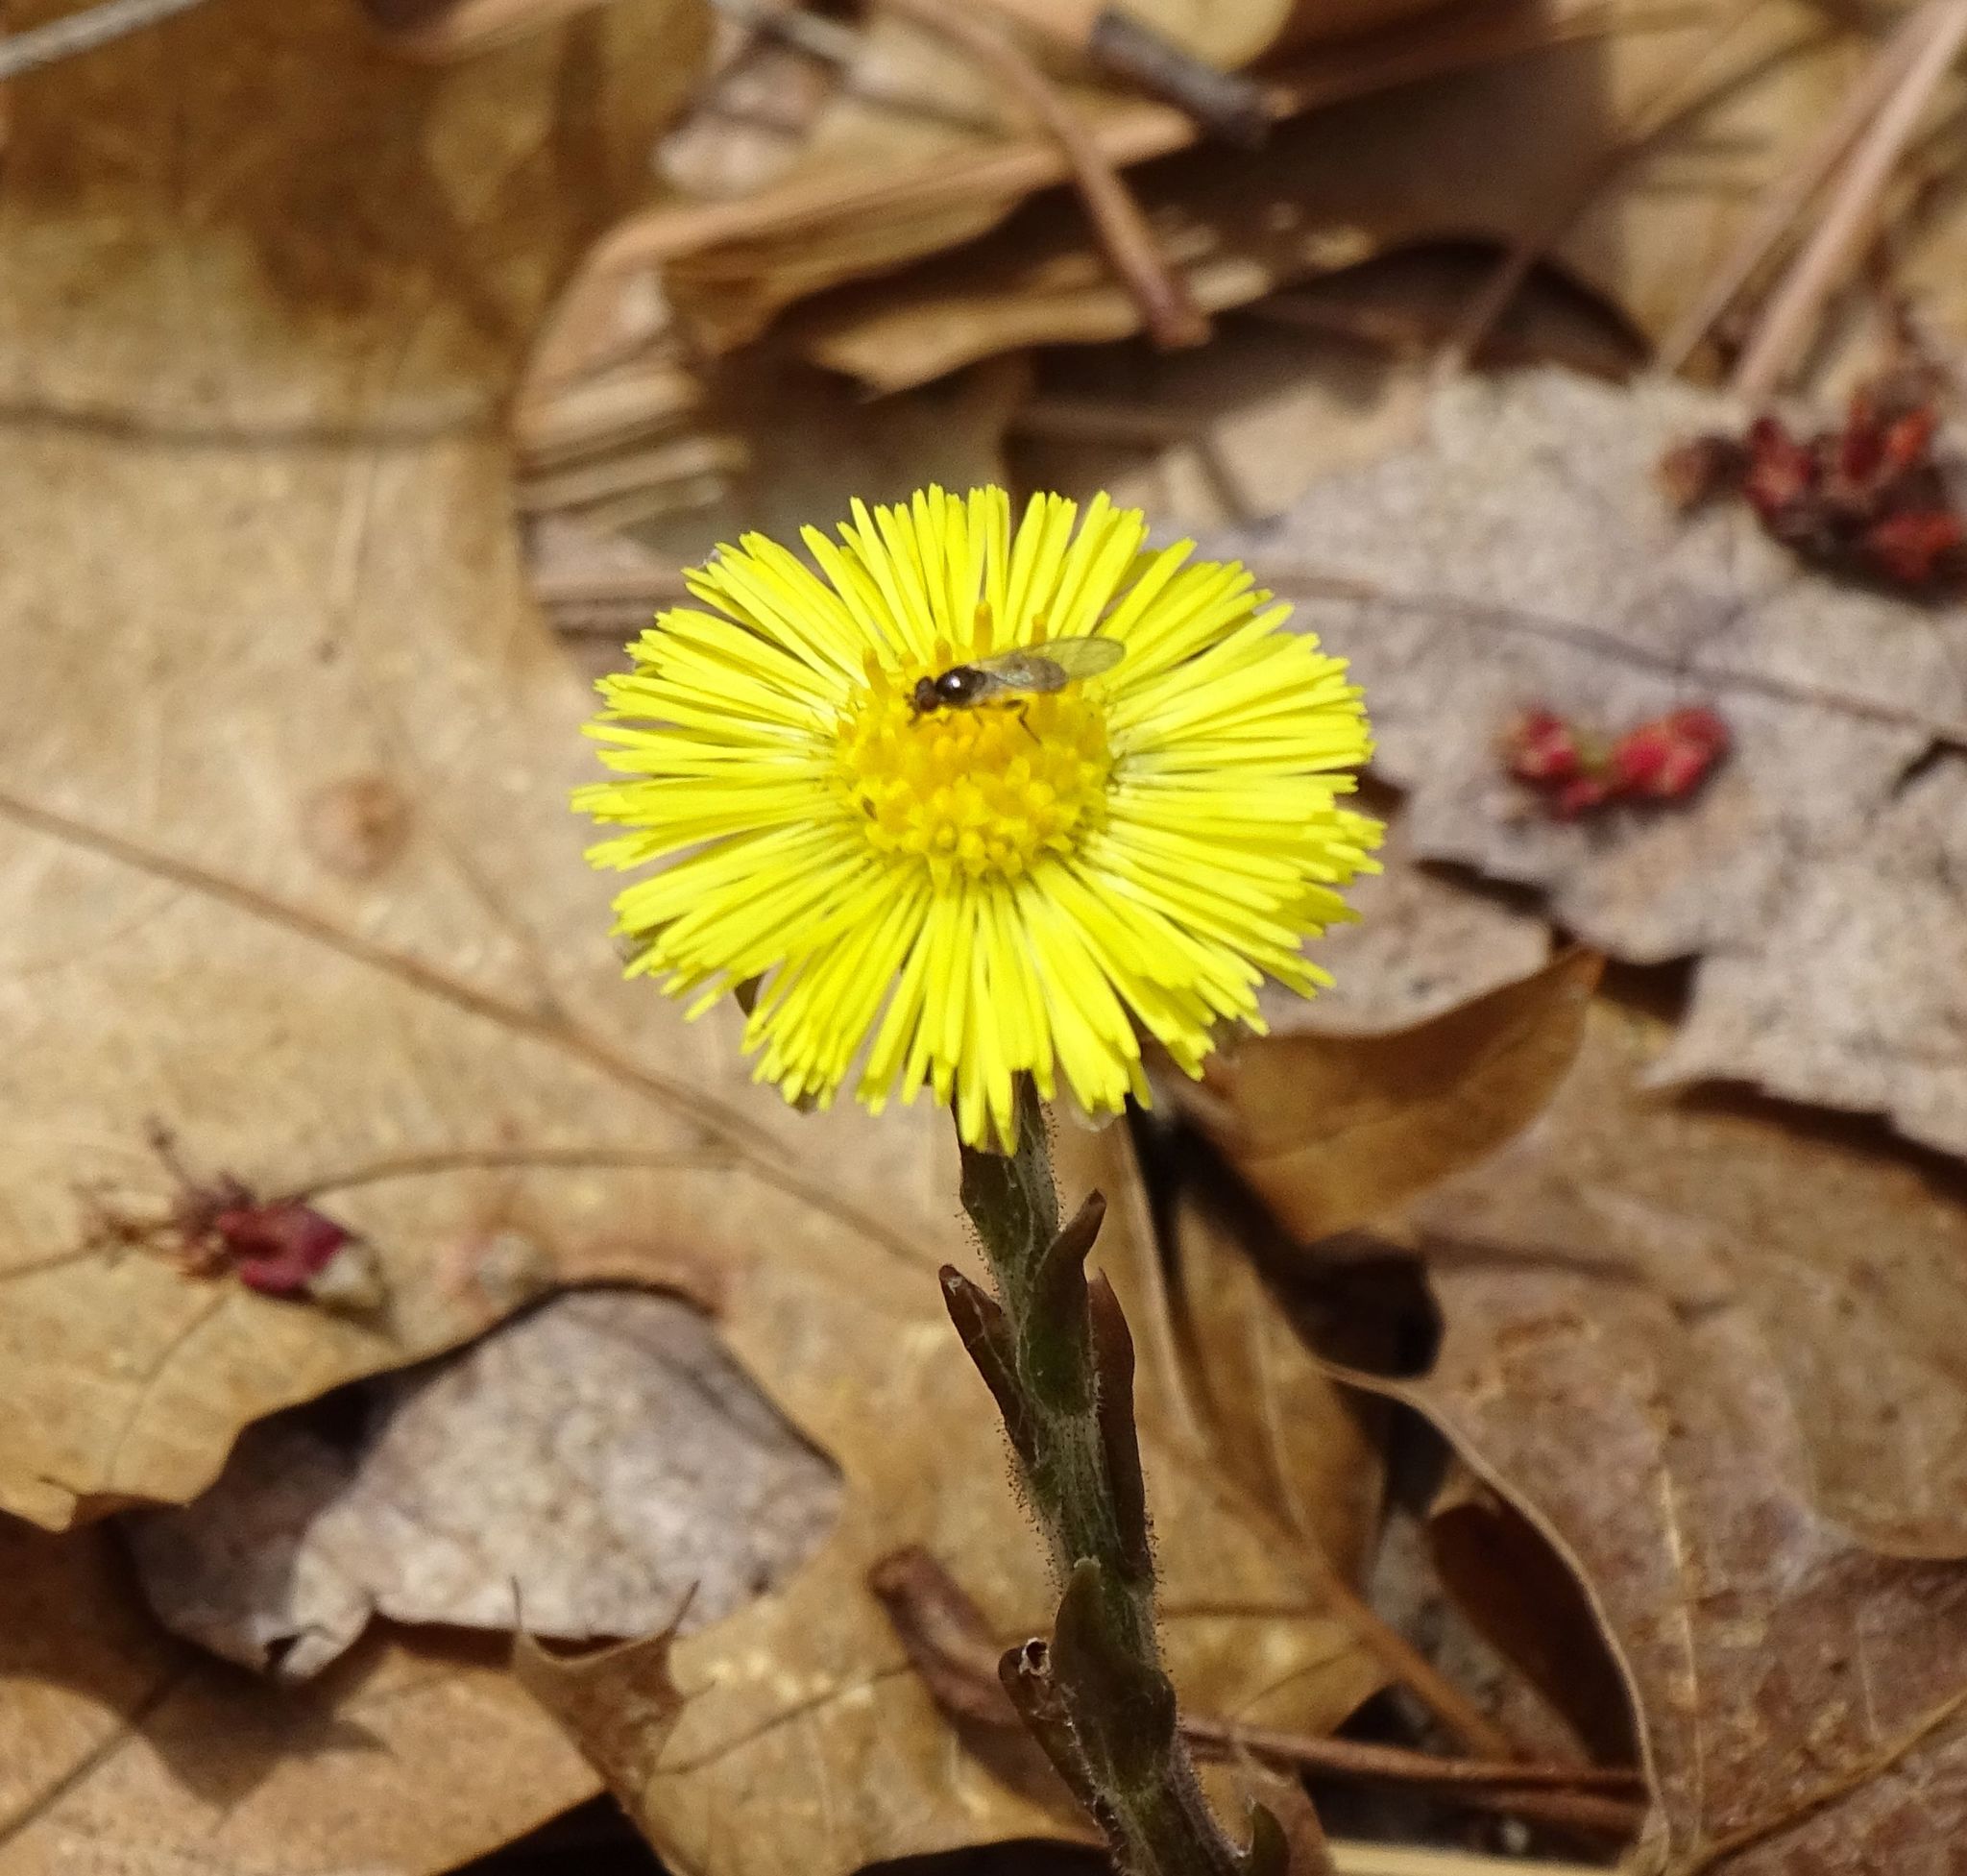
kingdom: Plantae
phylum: Tracheophyta
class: Magnoliopsida
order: Asterales
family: Asteraceae
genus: Tussilago
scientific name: Tussilago farfara
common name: Coltsfoot
